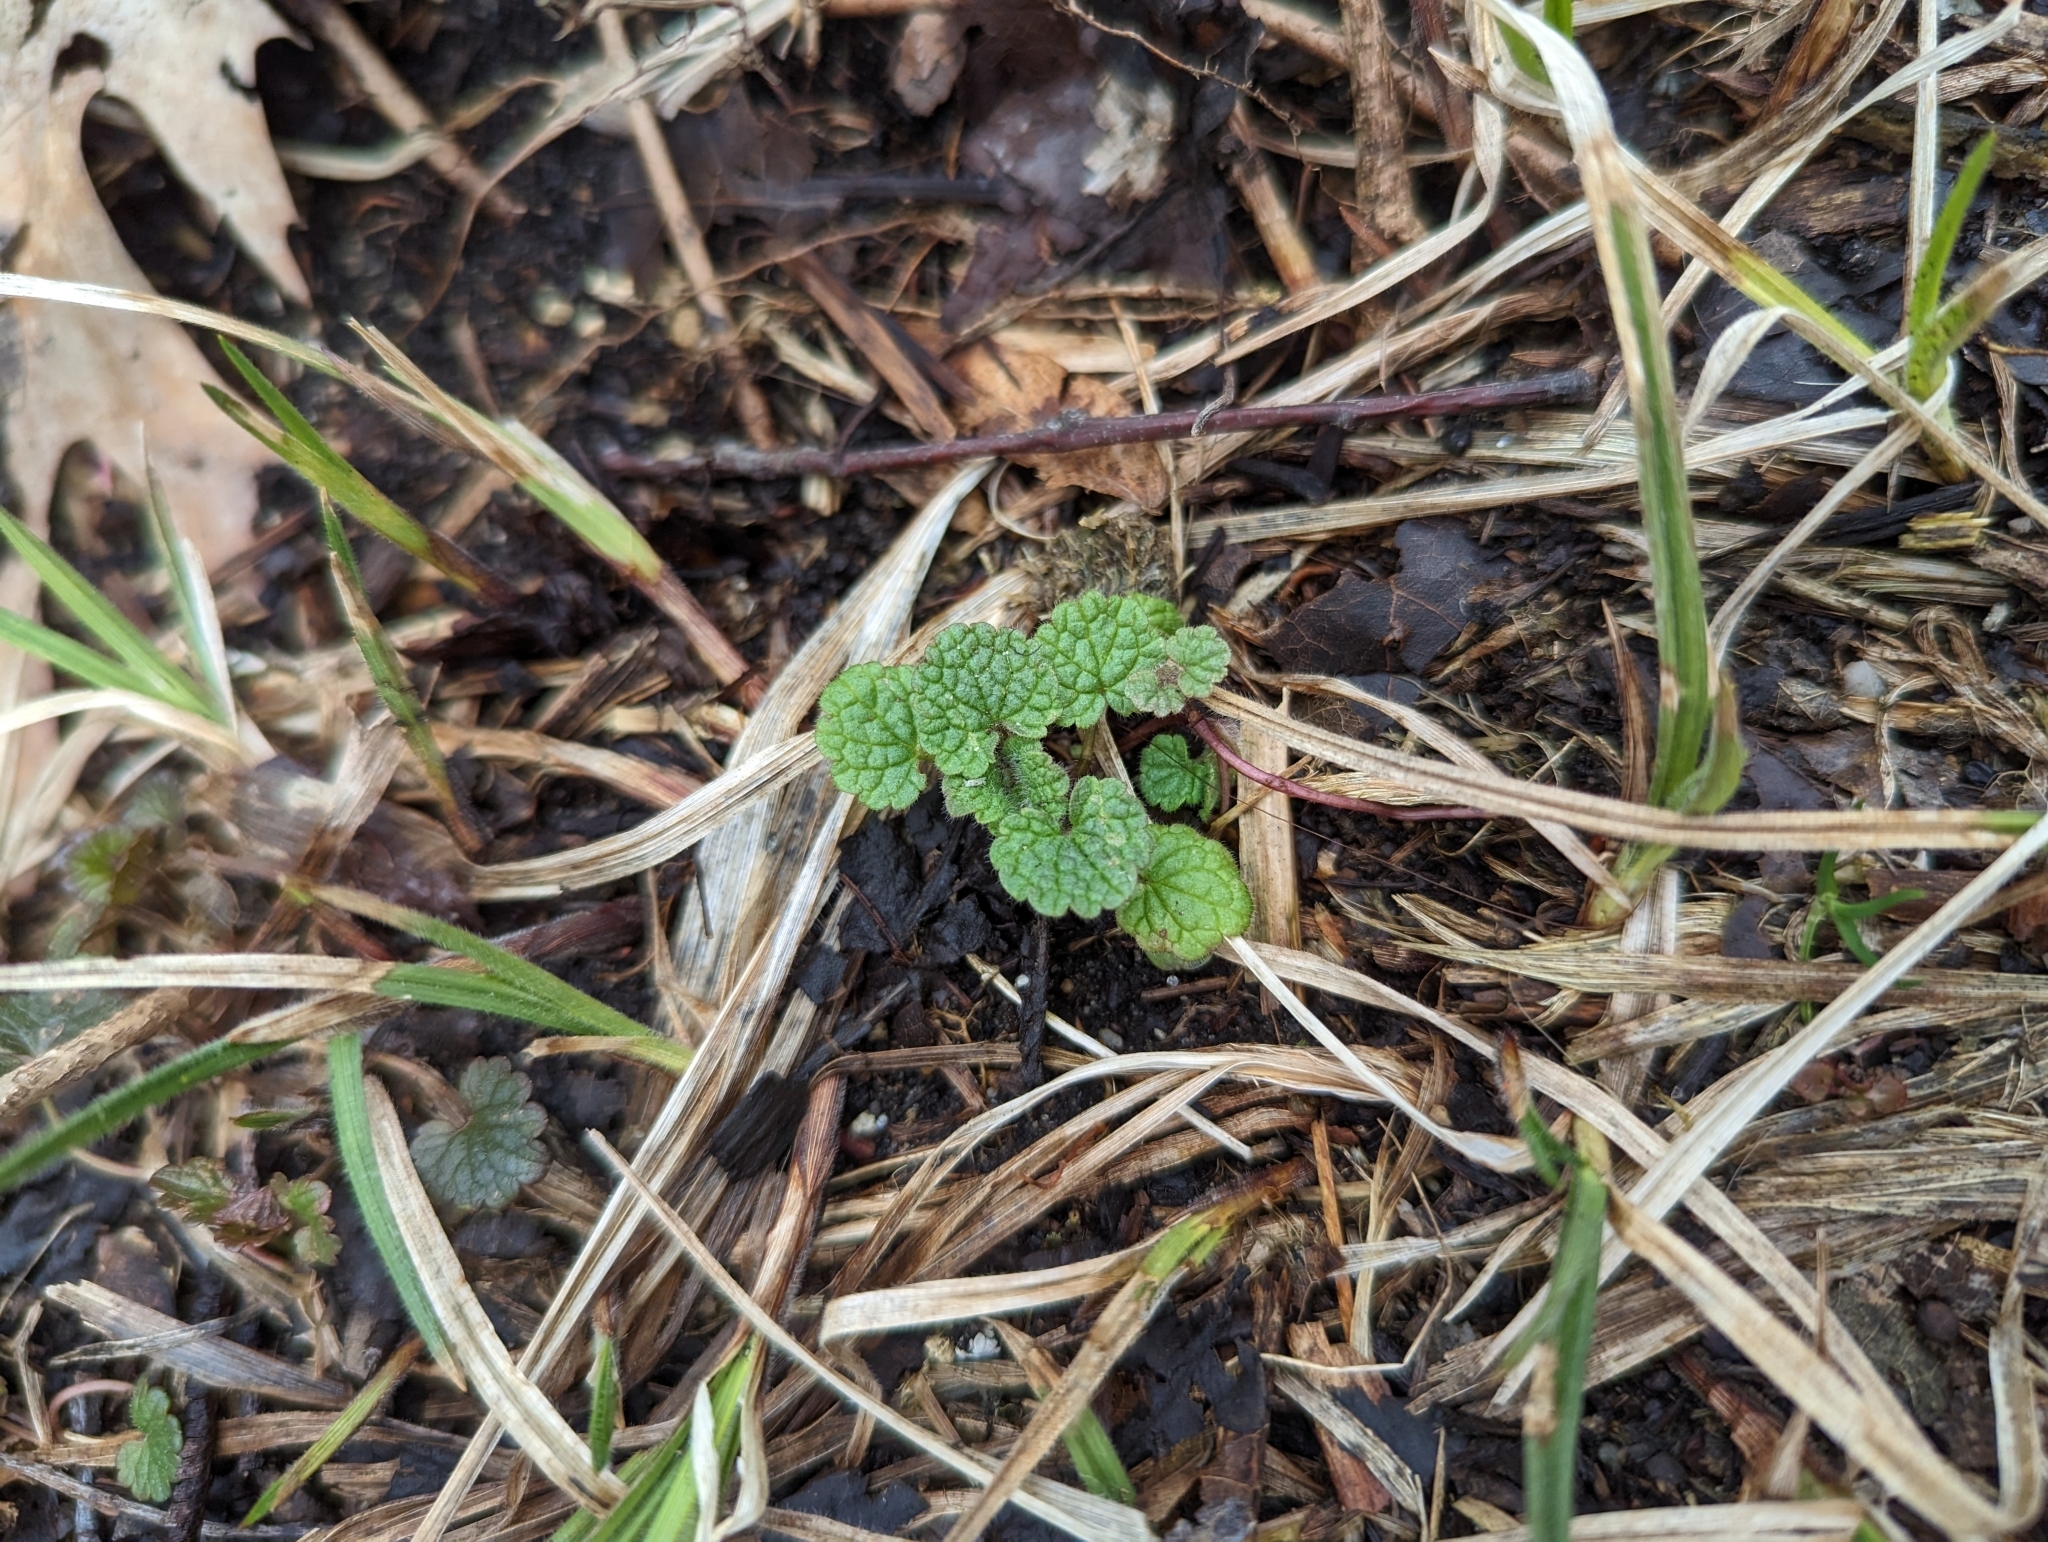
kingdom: Plantae
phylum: Tracheophyta
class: Magnoliopsida
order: Lamiales
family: Lamiaceae
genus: Lamium
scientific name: Lamium purpureum
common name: Red dead-nettle
